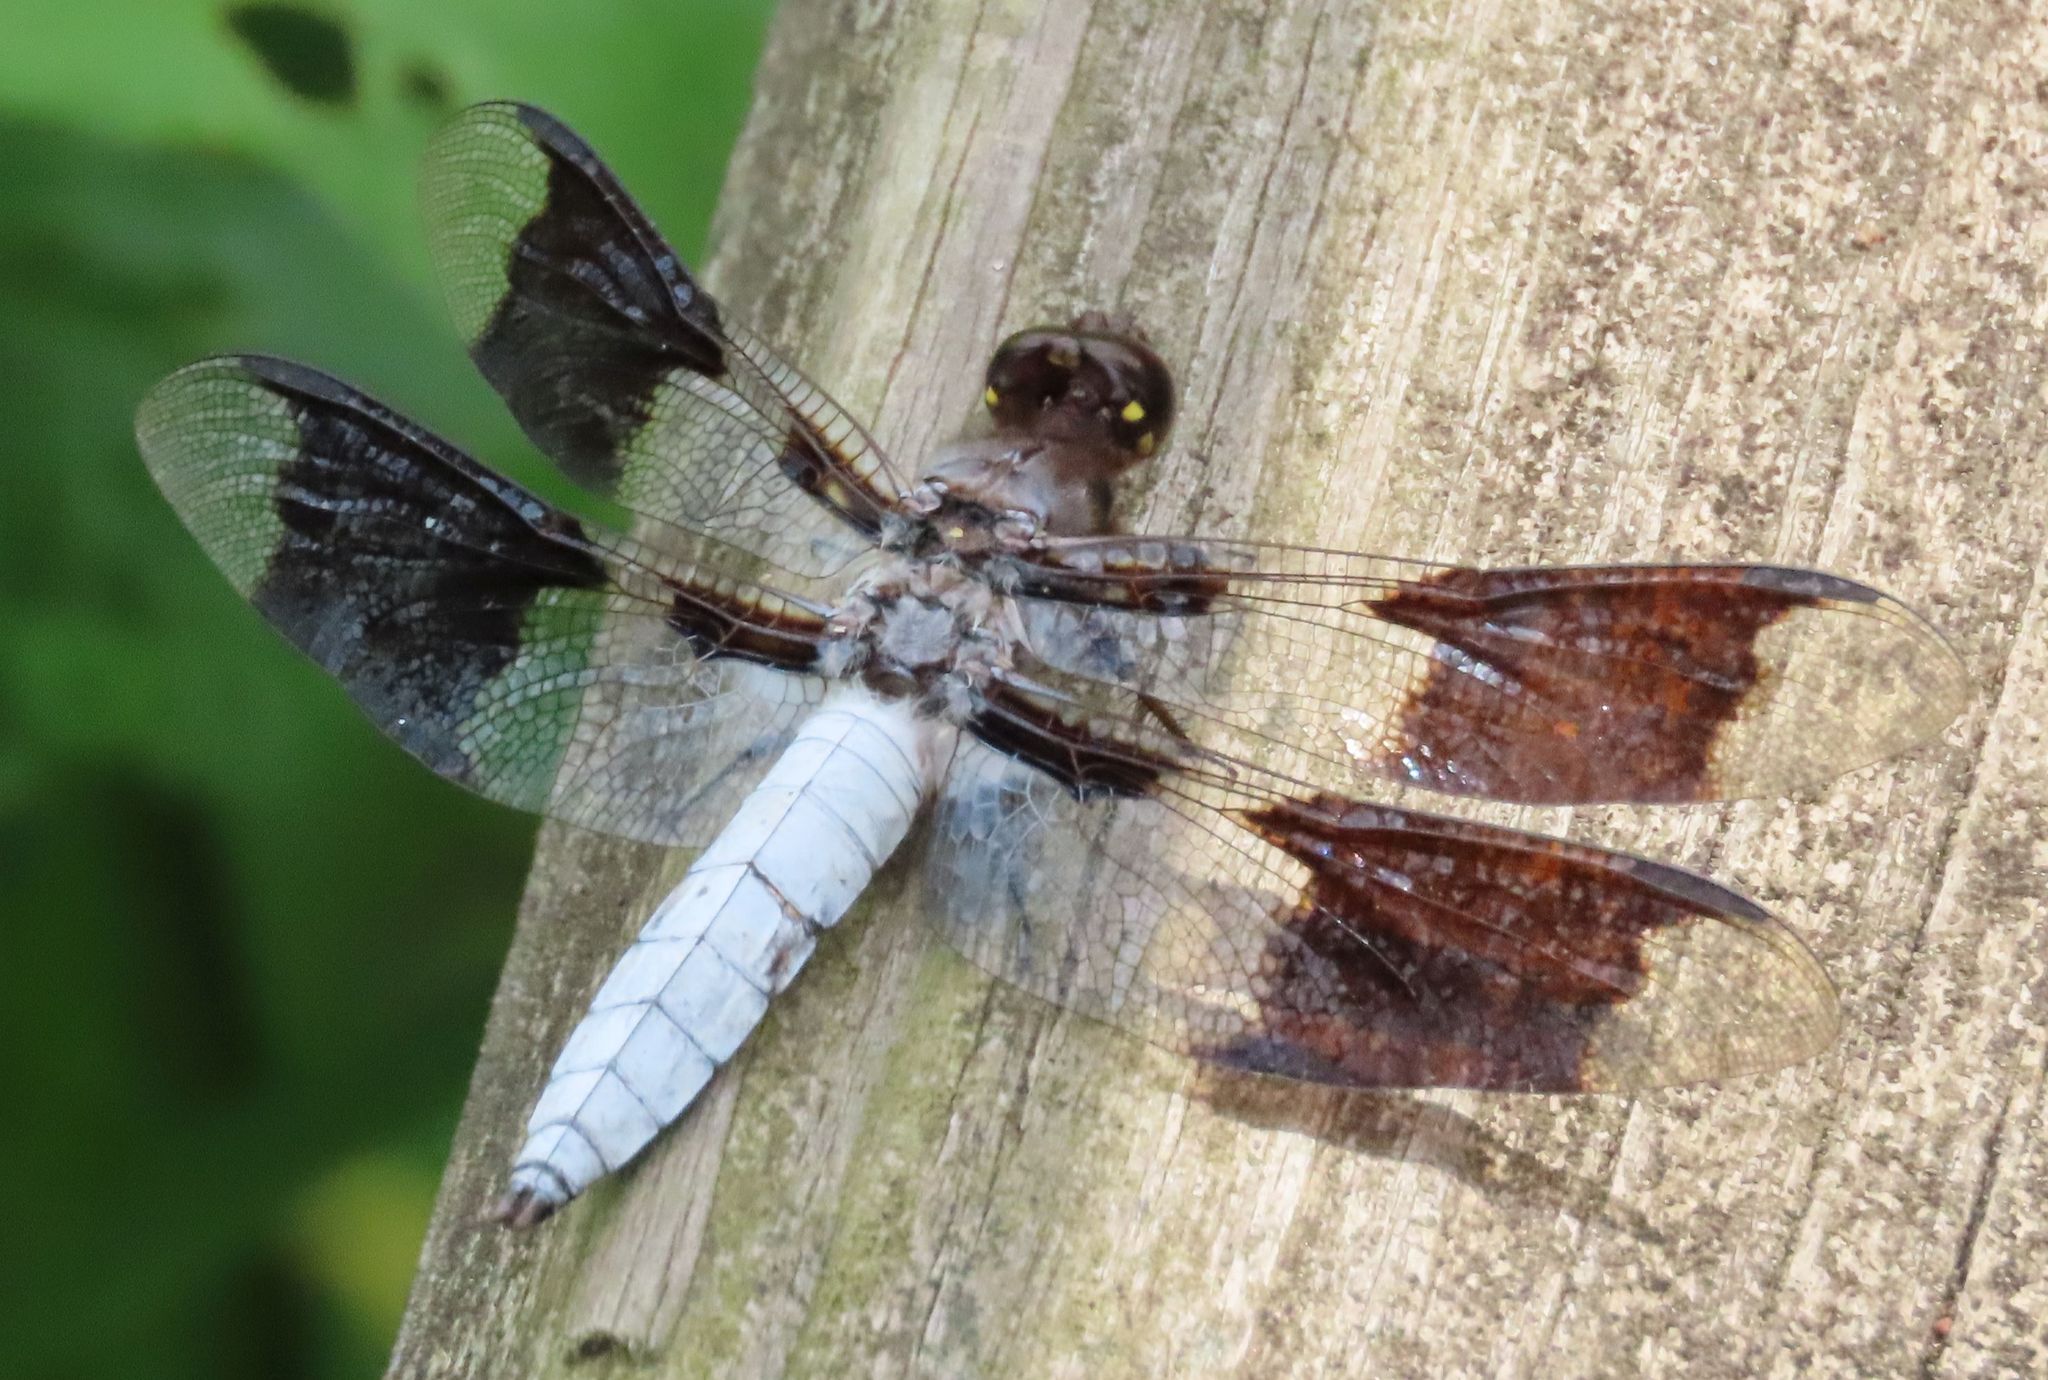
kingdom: Animalia
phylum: Arthropoda
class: Insecta
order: Odonata
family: Libellulidae
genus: Plathemis
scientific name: Plathemis lydia
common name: Common whitetail
